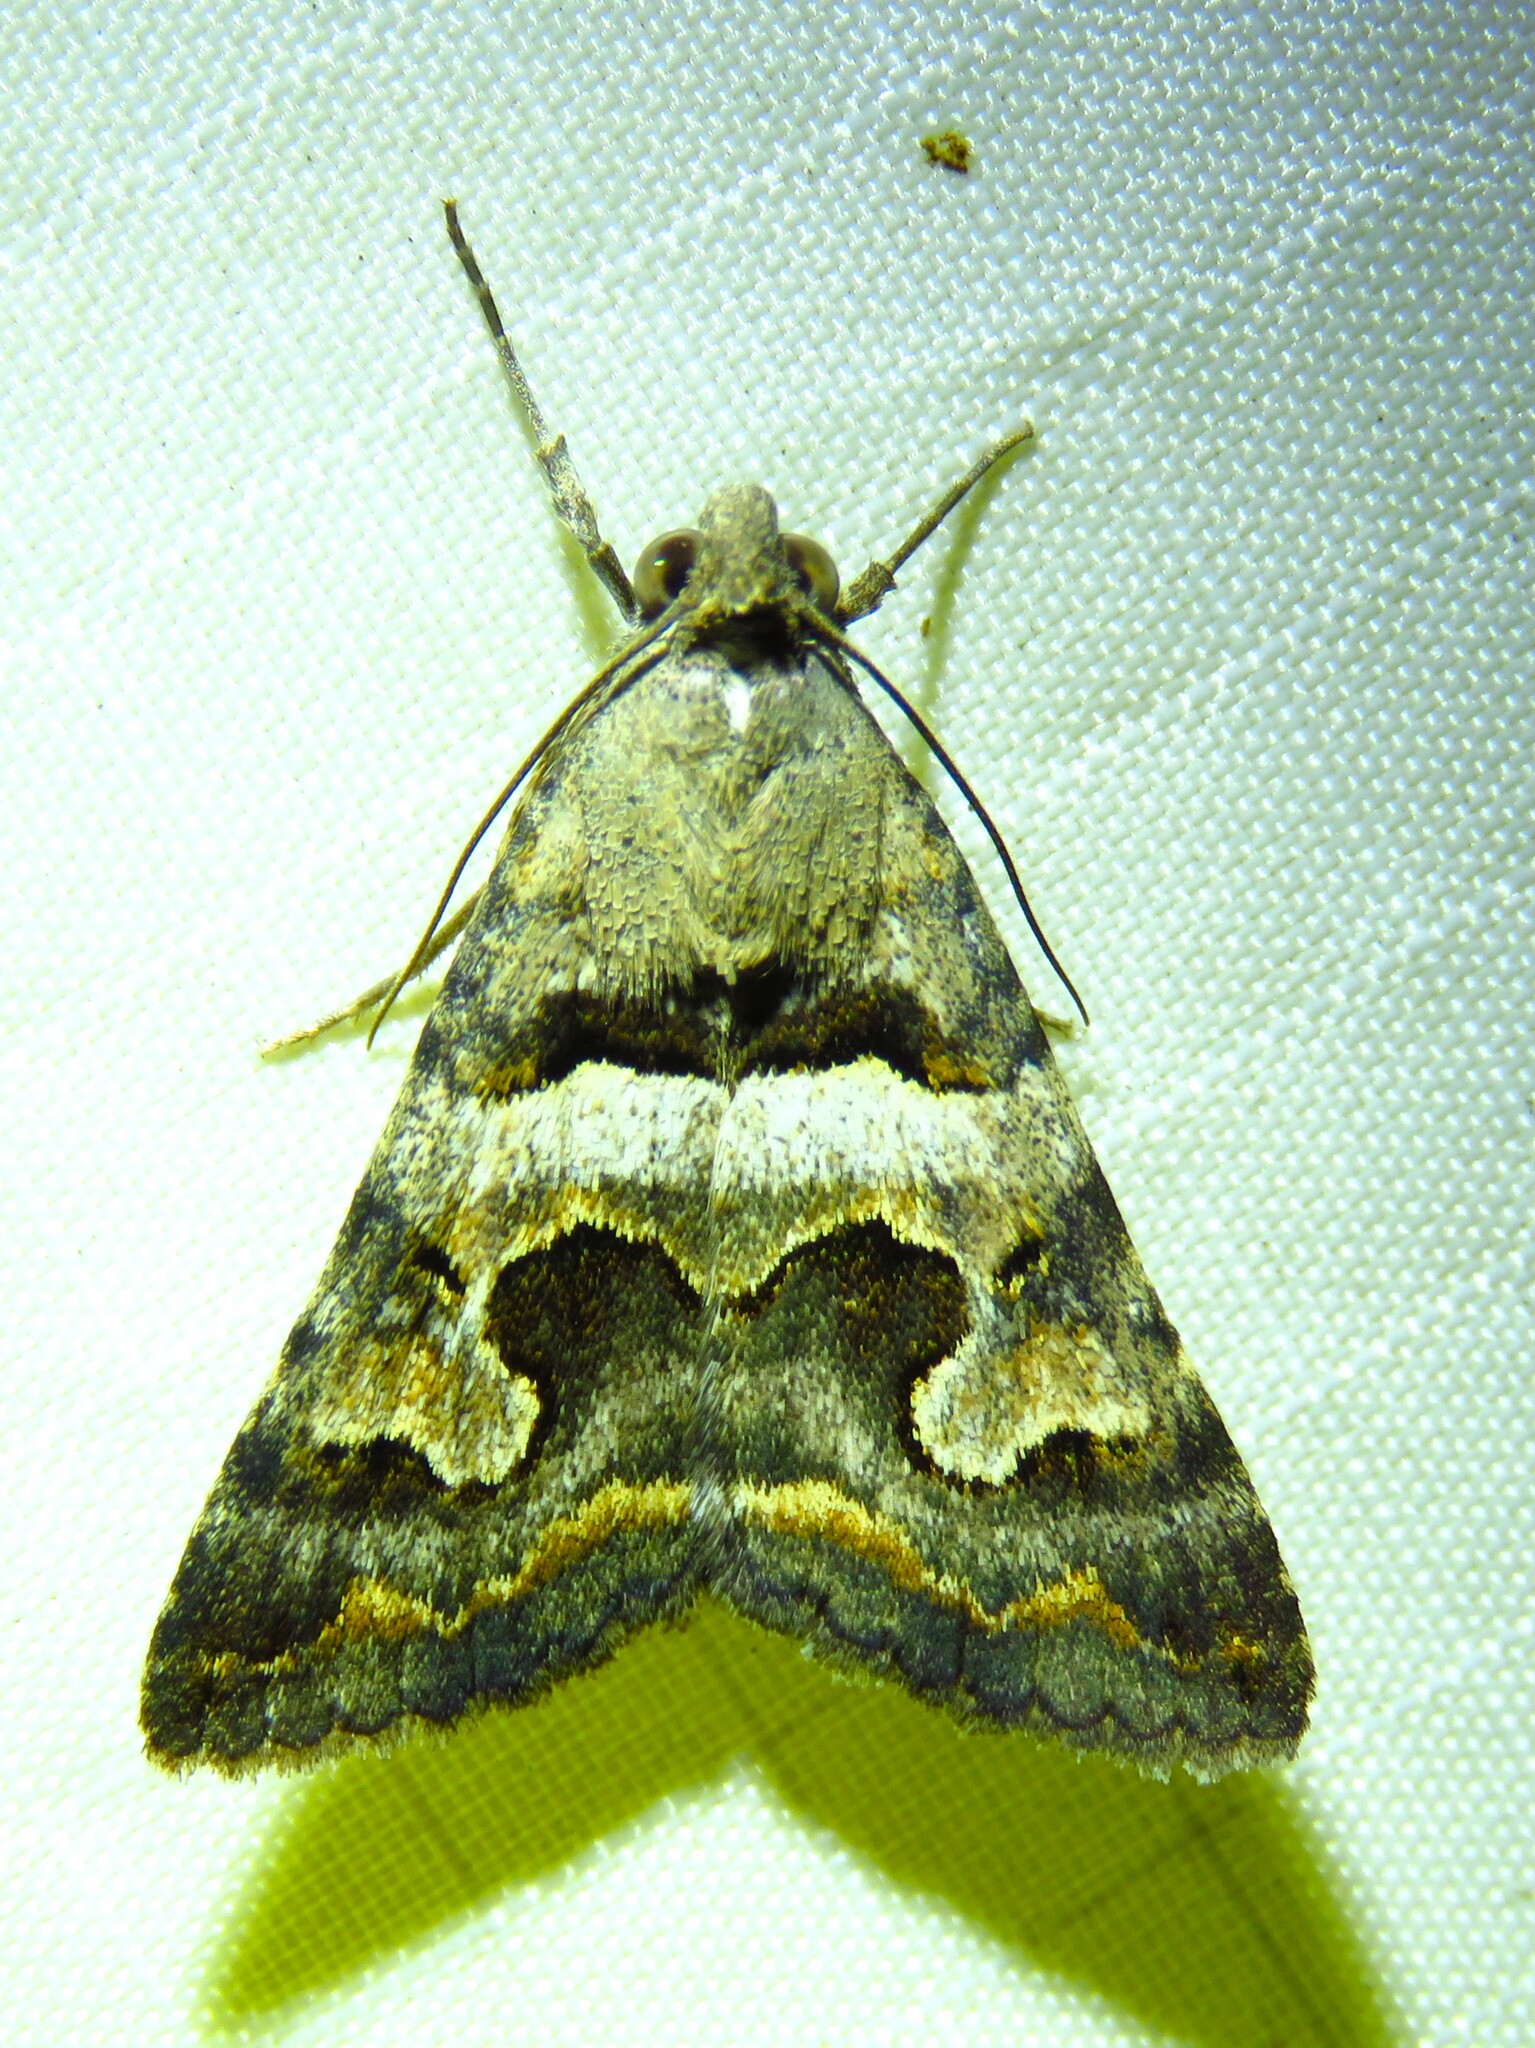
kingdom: Animalia
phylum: Arthropoda
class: Insecta
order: Lepidoptera
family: Erebidae
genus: Bulia
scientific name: Bulia deducta
